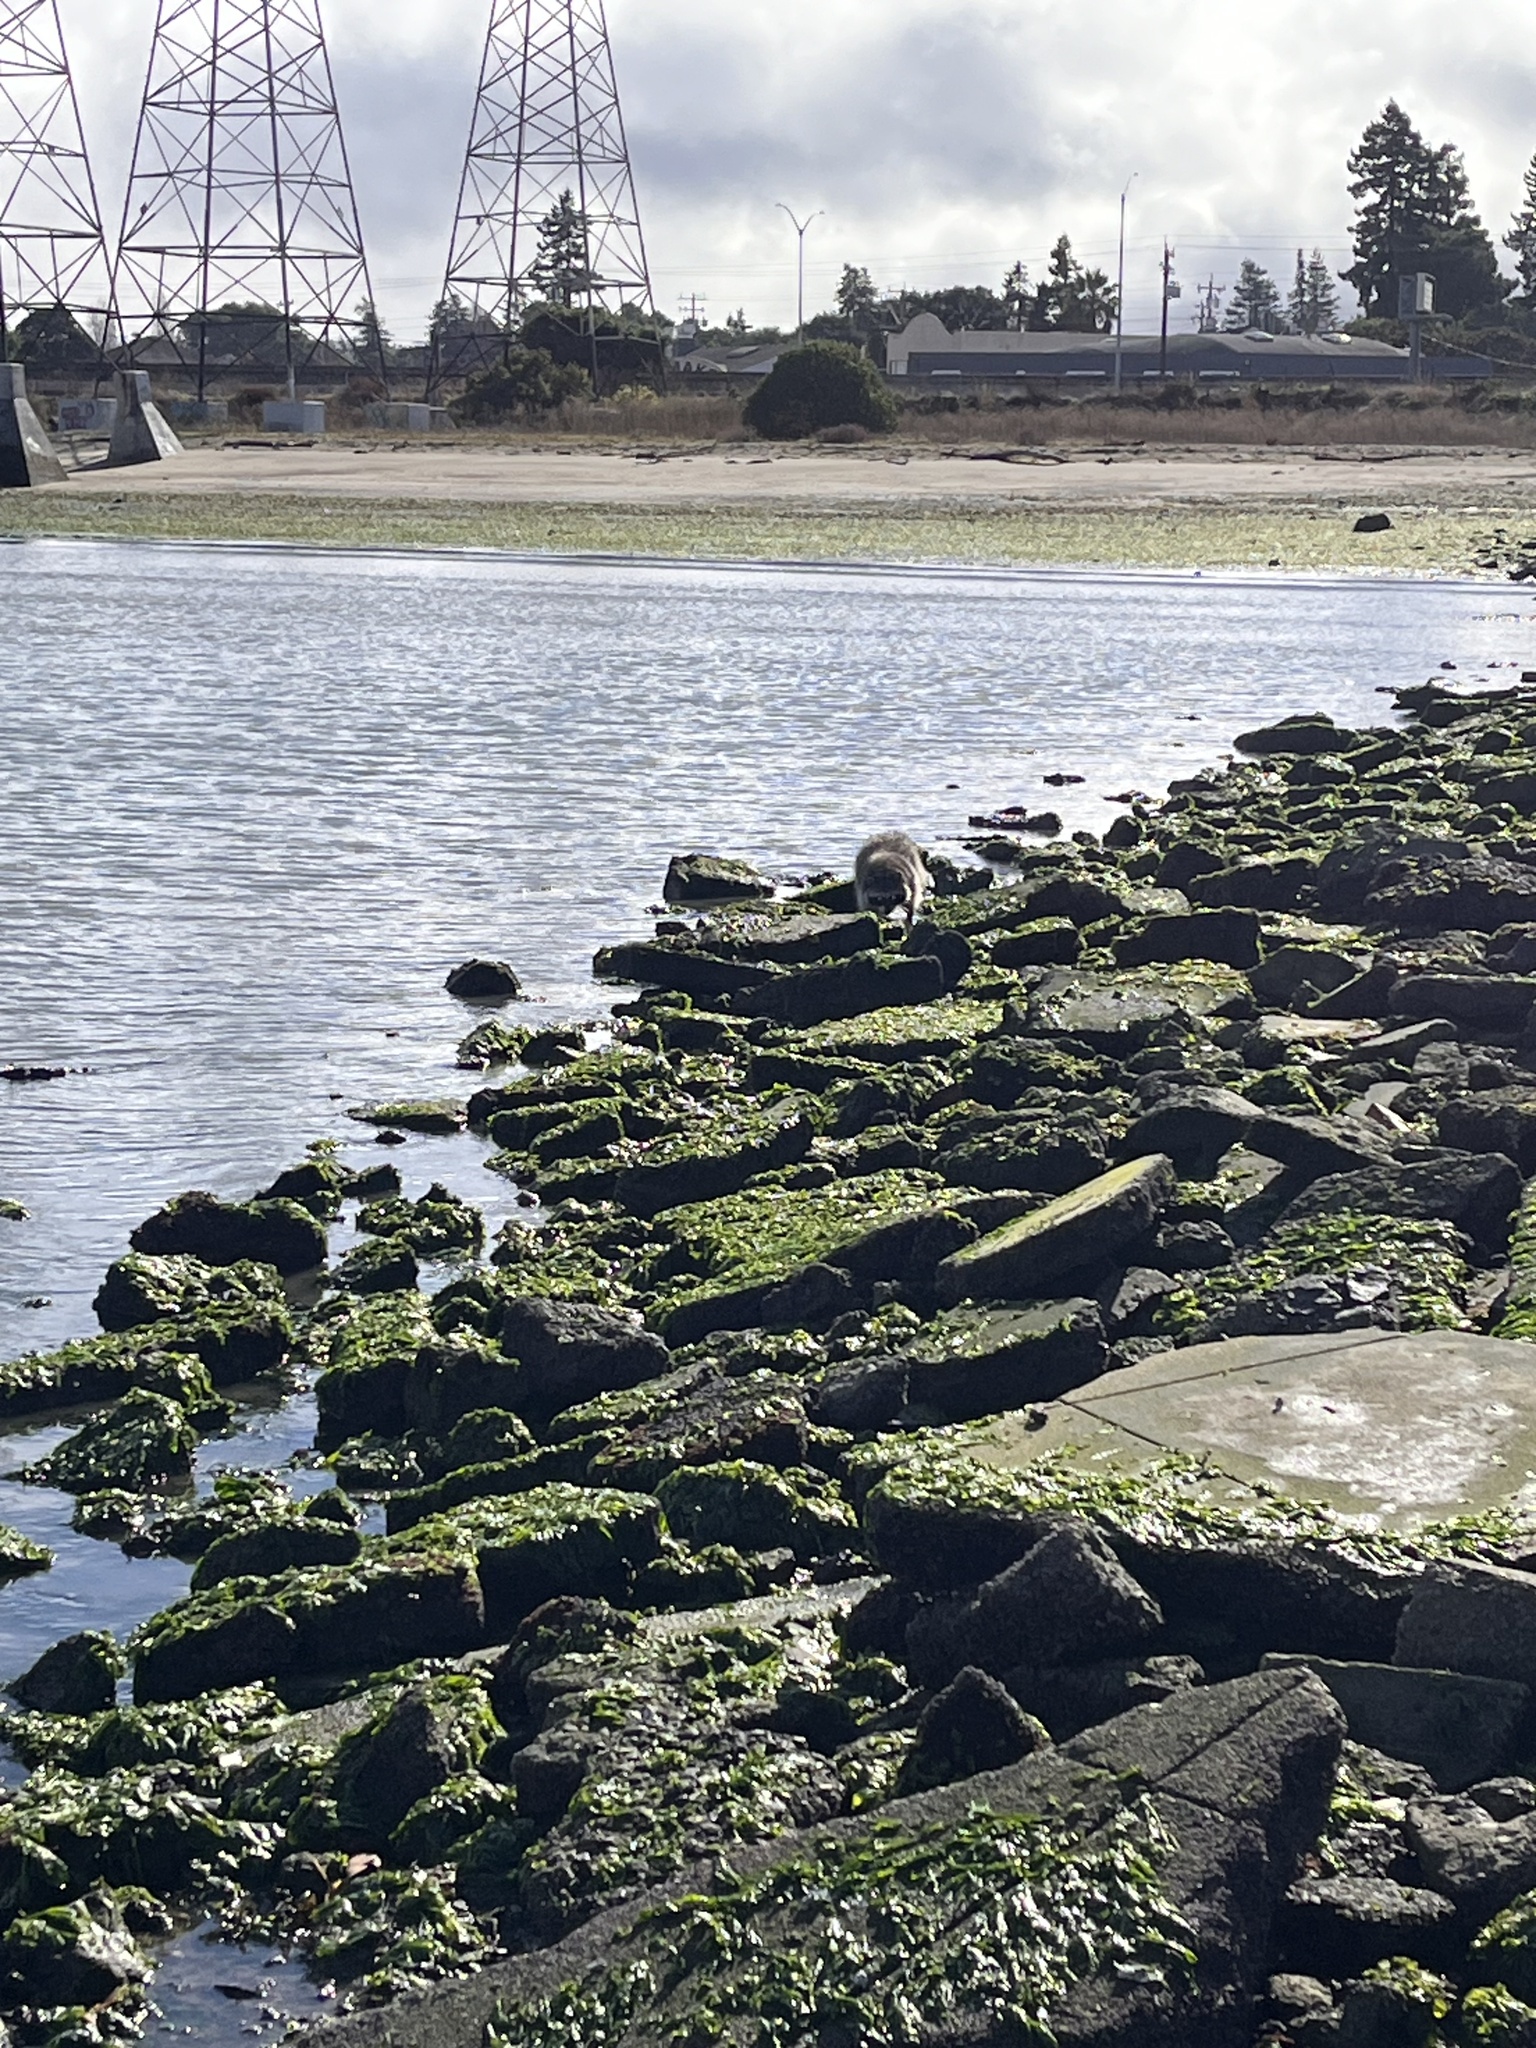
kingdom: Animalia
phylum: Chordata
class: Mammalia
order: Carnivora
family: Procyonidae
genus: Procyon
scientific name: Procyon lotor
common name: Raccoon
